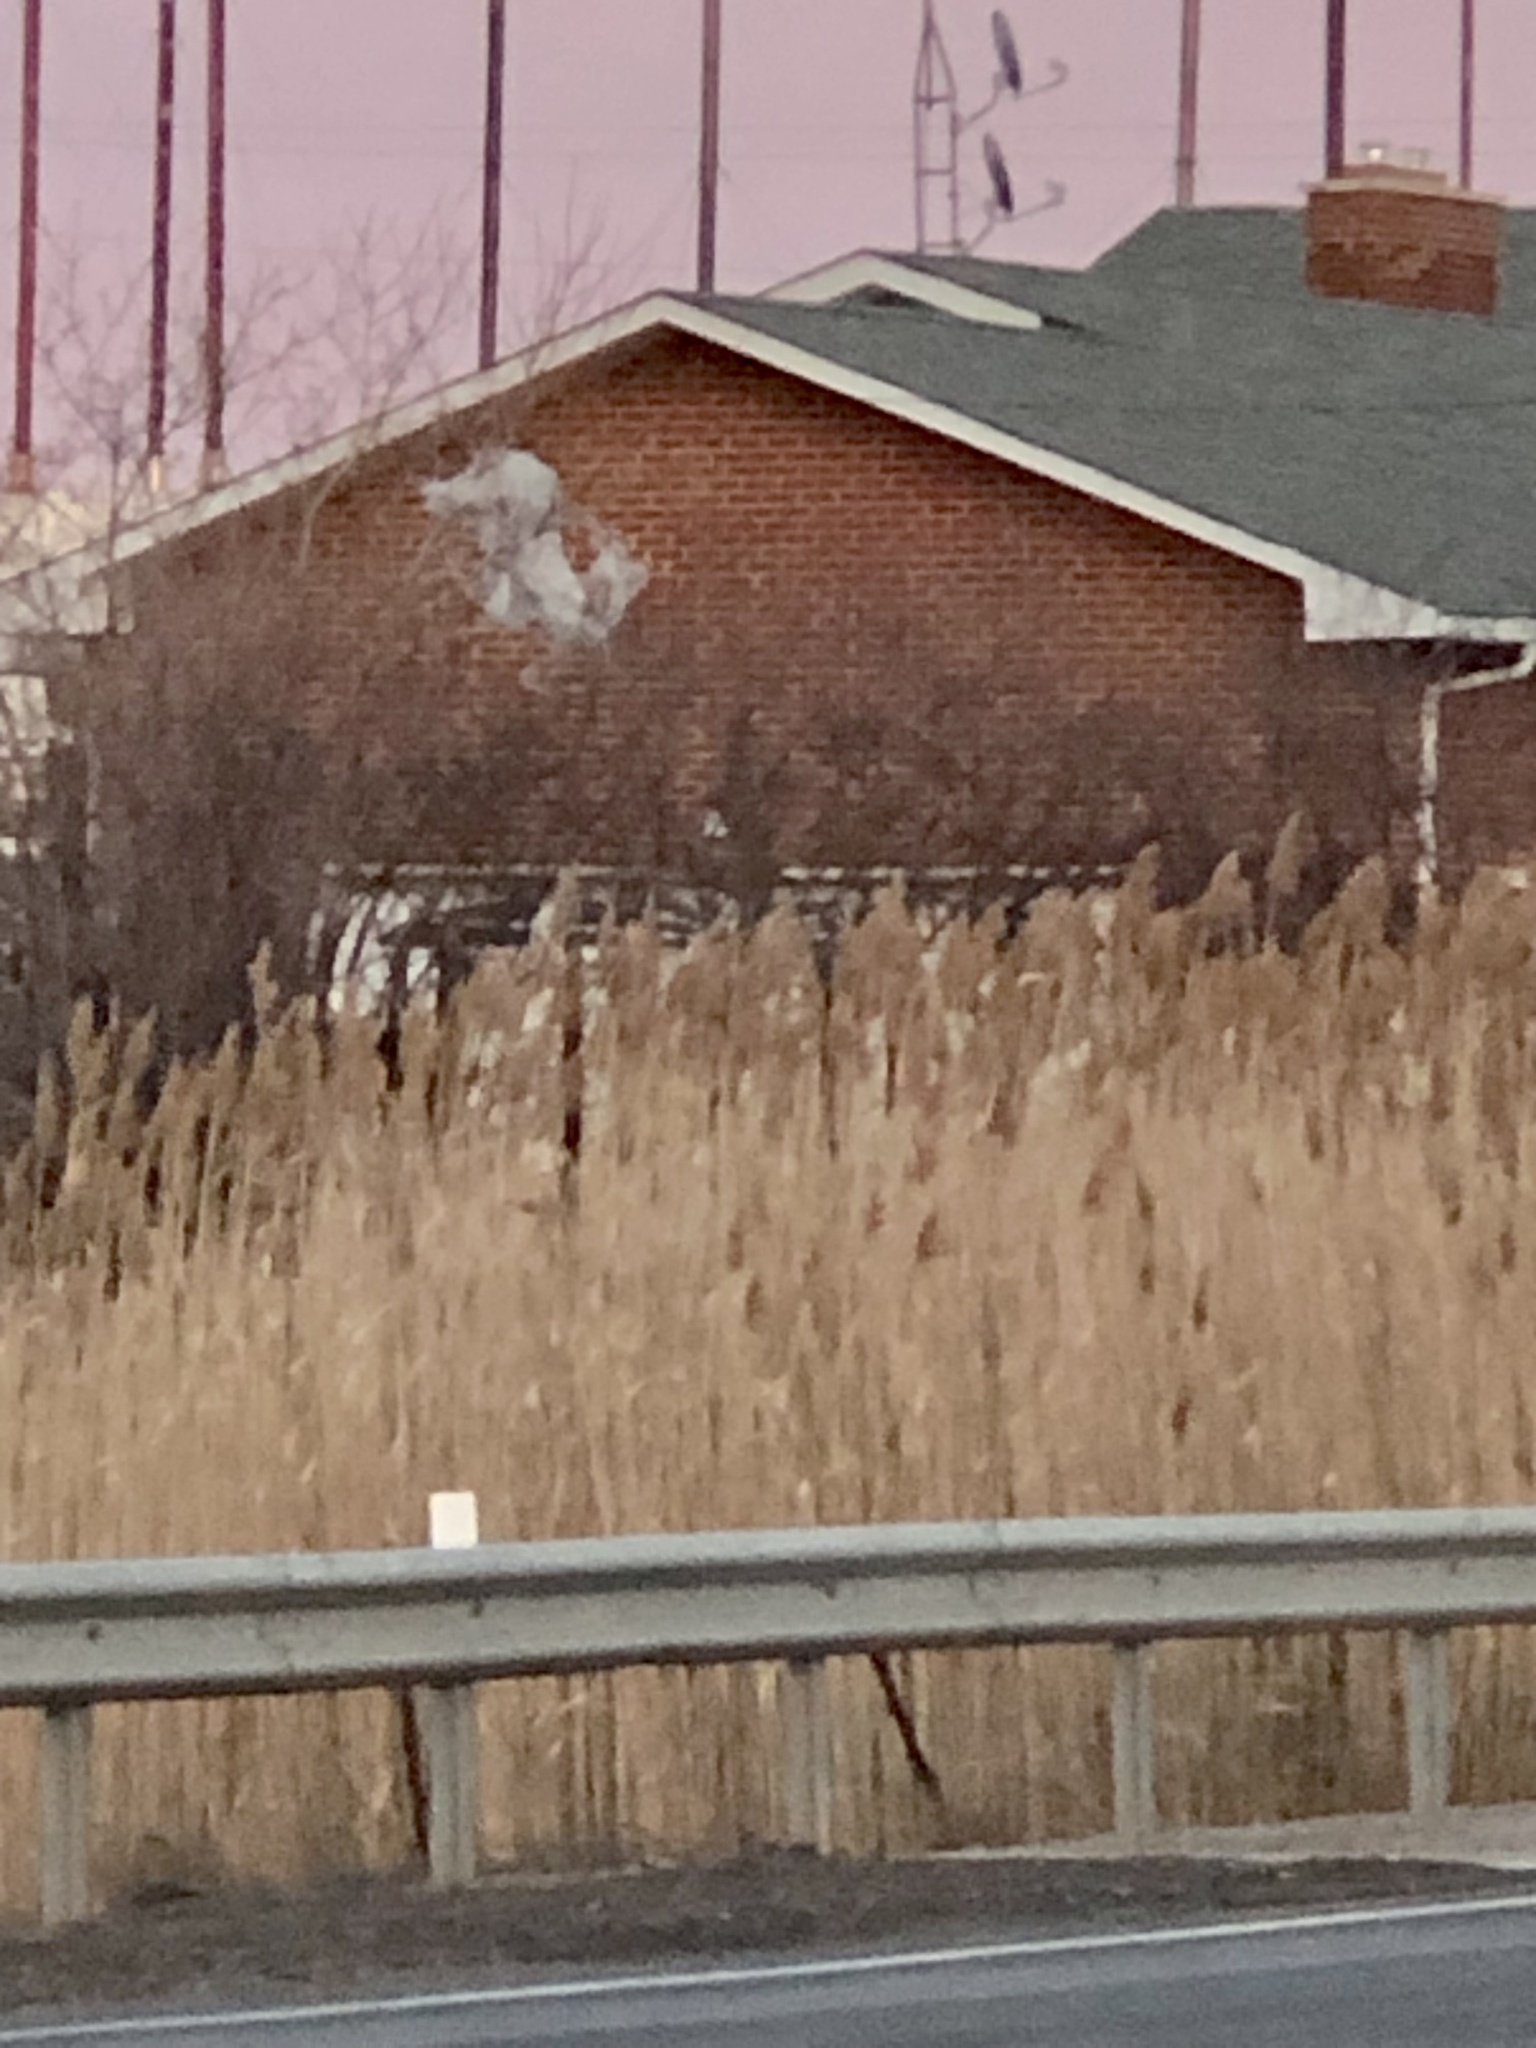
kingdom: Plantae
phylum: Tracheophyta
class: Liliopsida
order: Poales
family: Poaceae
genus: Phragmites
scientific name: Phragmites australis
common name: Common reed
